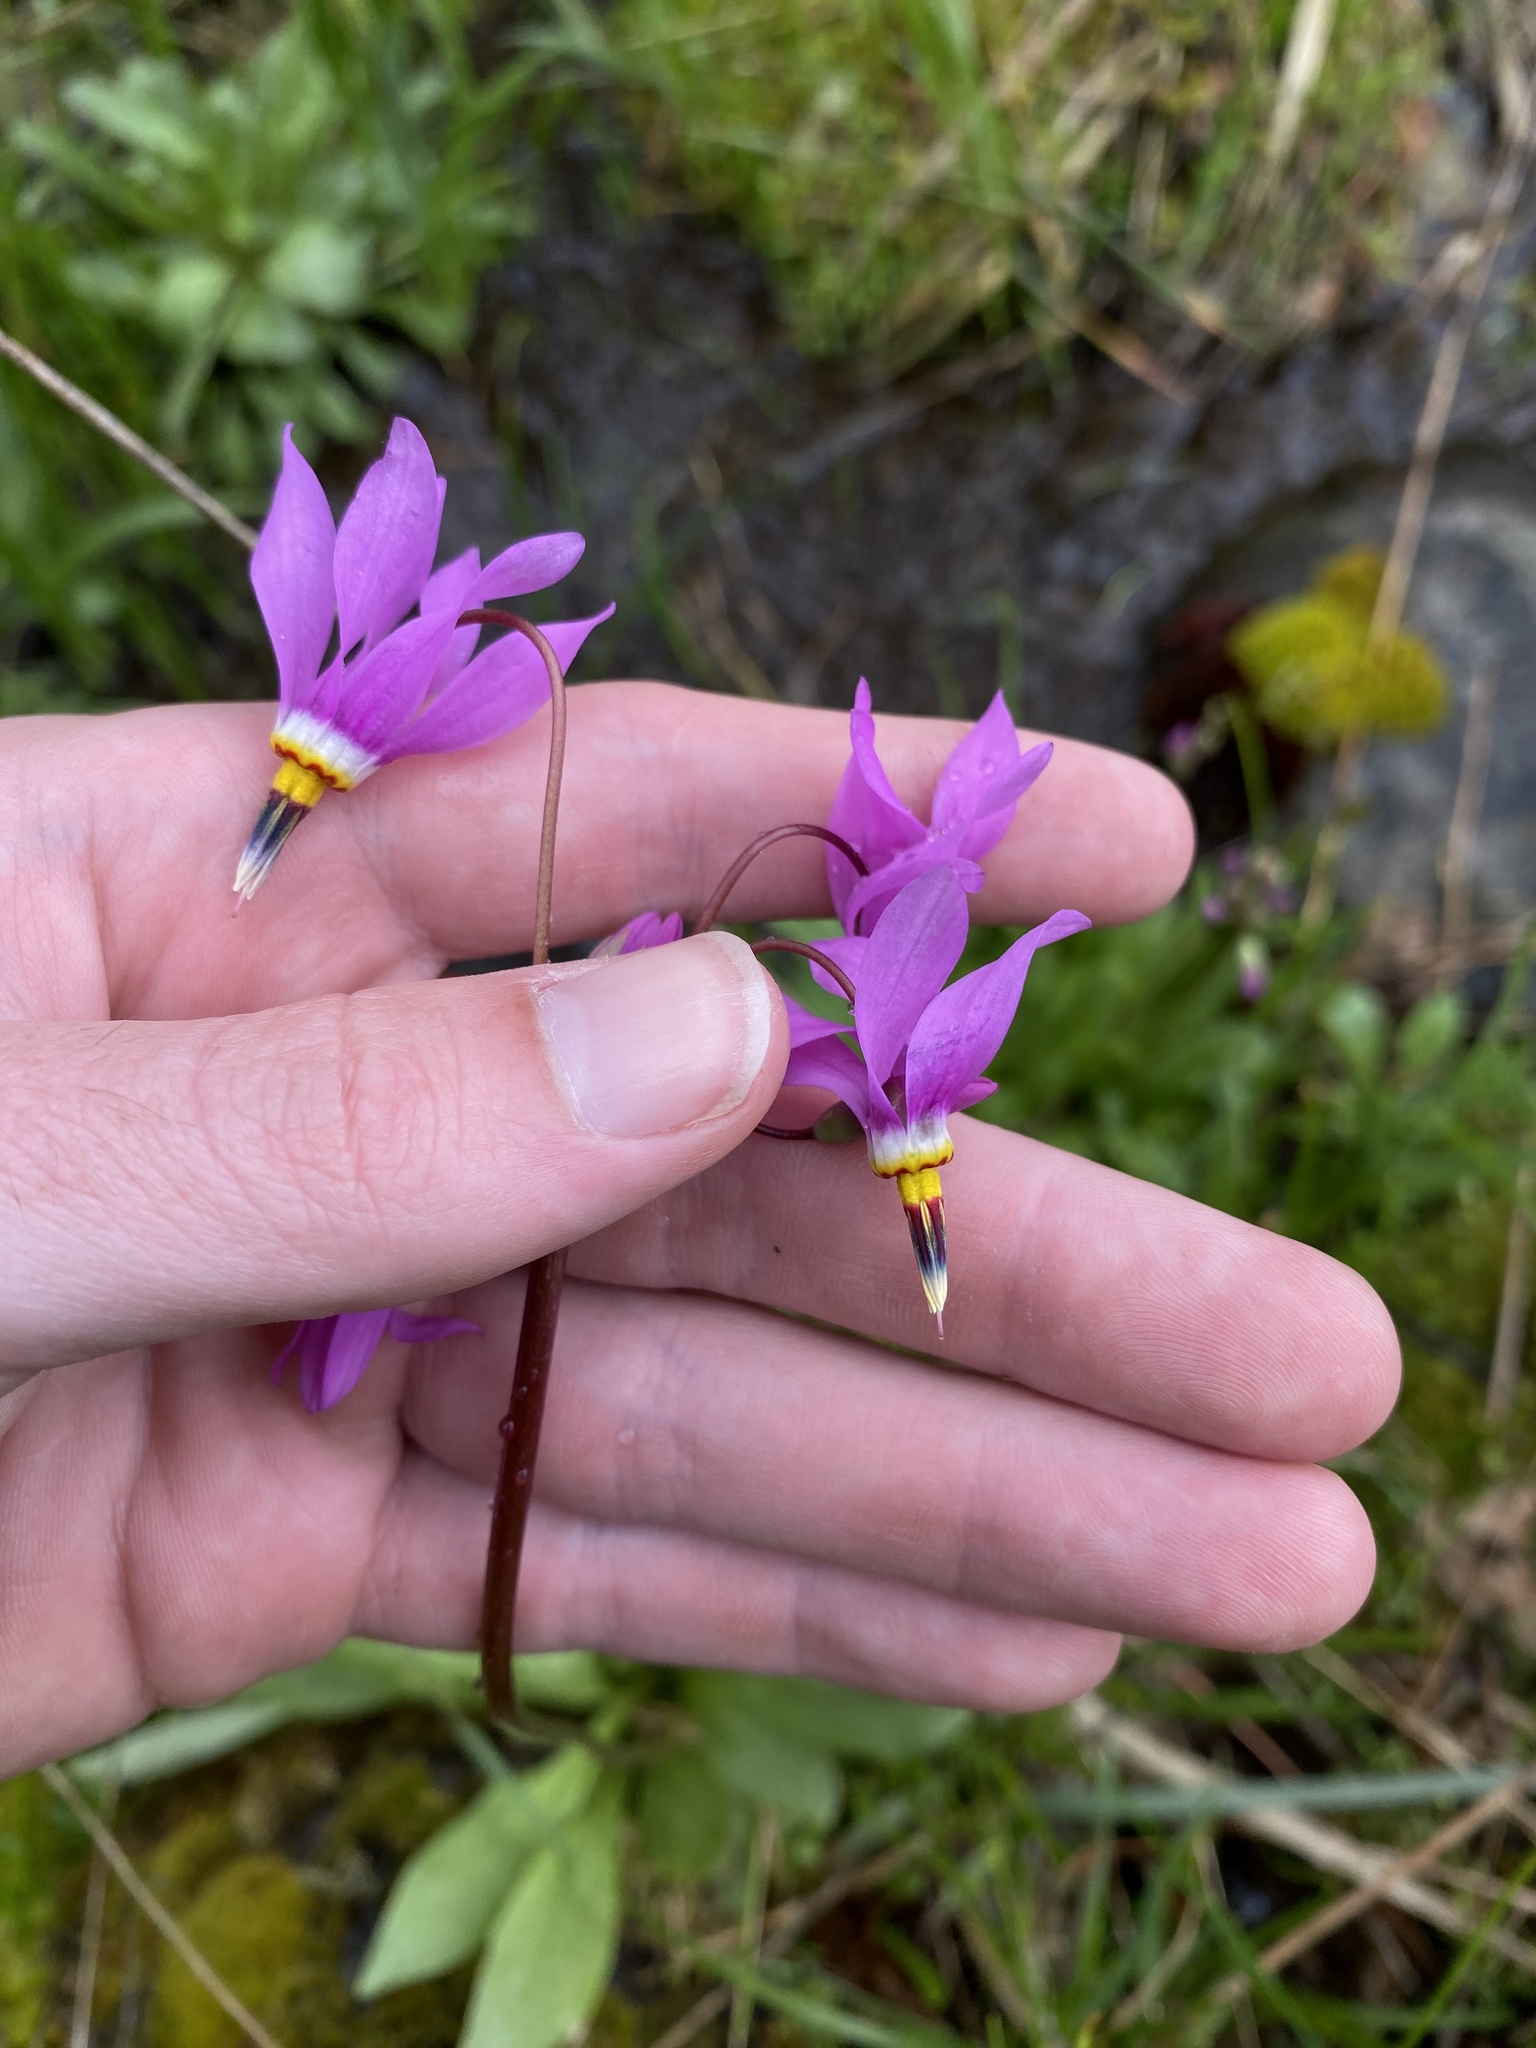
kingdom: Plantae
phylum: Tracheophyta
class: Magnoliopsida
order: Ericales
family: Primulaceae
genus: Dodecatheon
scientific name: Dodecatheon pulchellum
